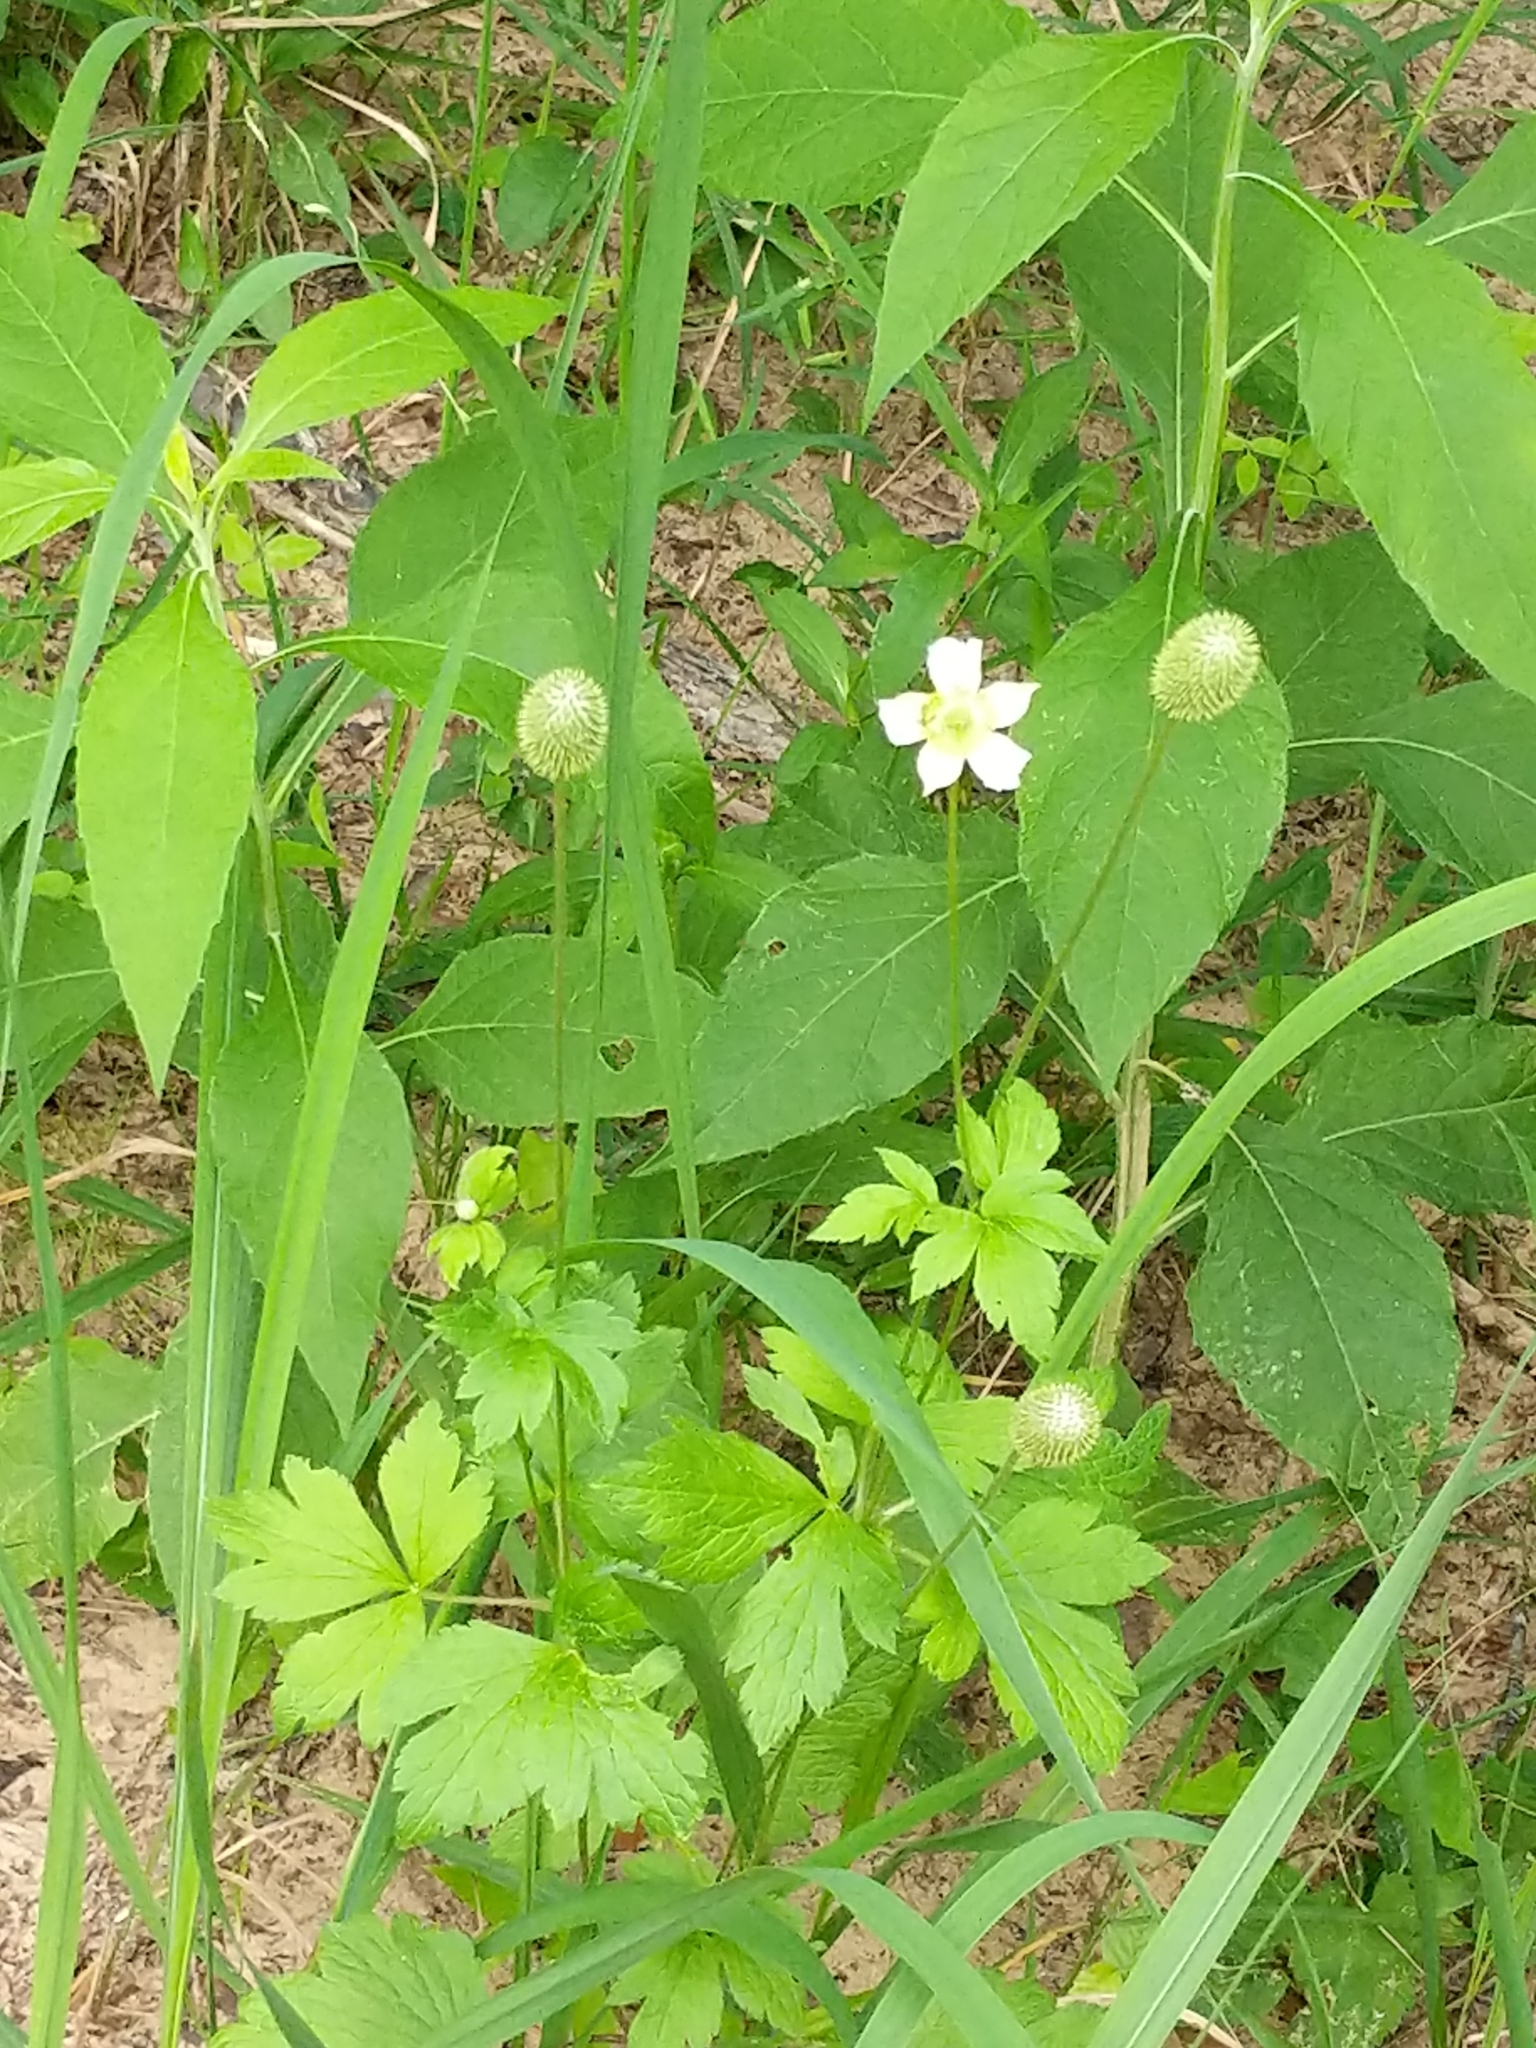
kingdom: Plantae
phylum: Tracheophyta
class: Magnoliopsida
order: Ranunculales
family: Ranunculaceae
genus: Anemone
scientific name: Anemone virginiana
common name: Tall anemone
